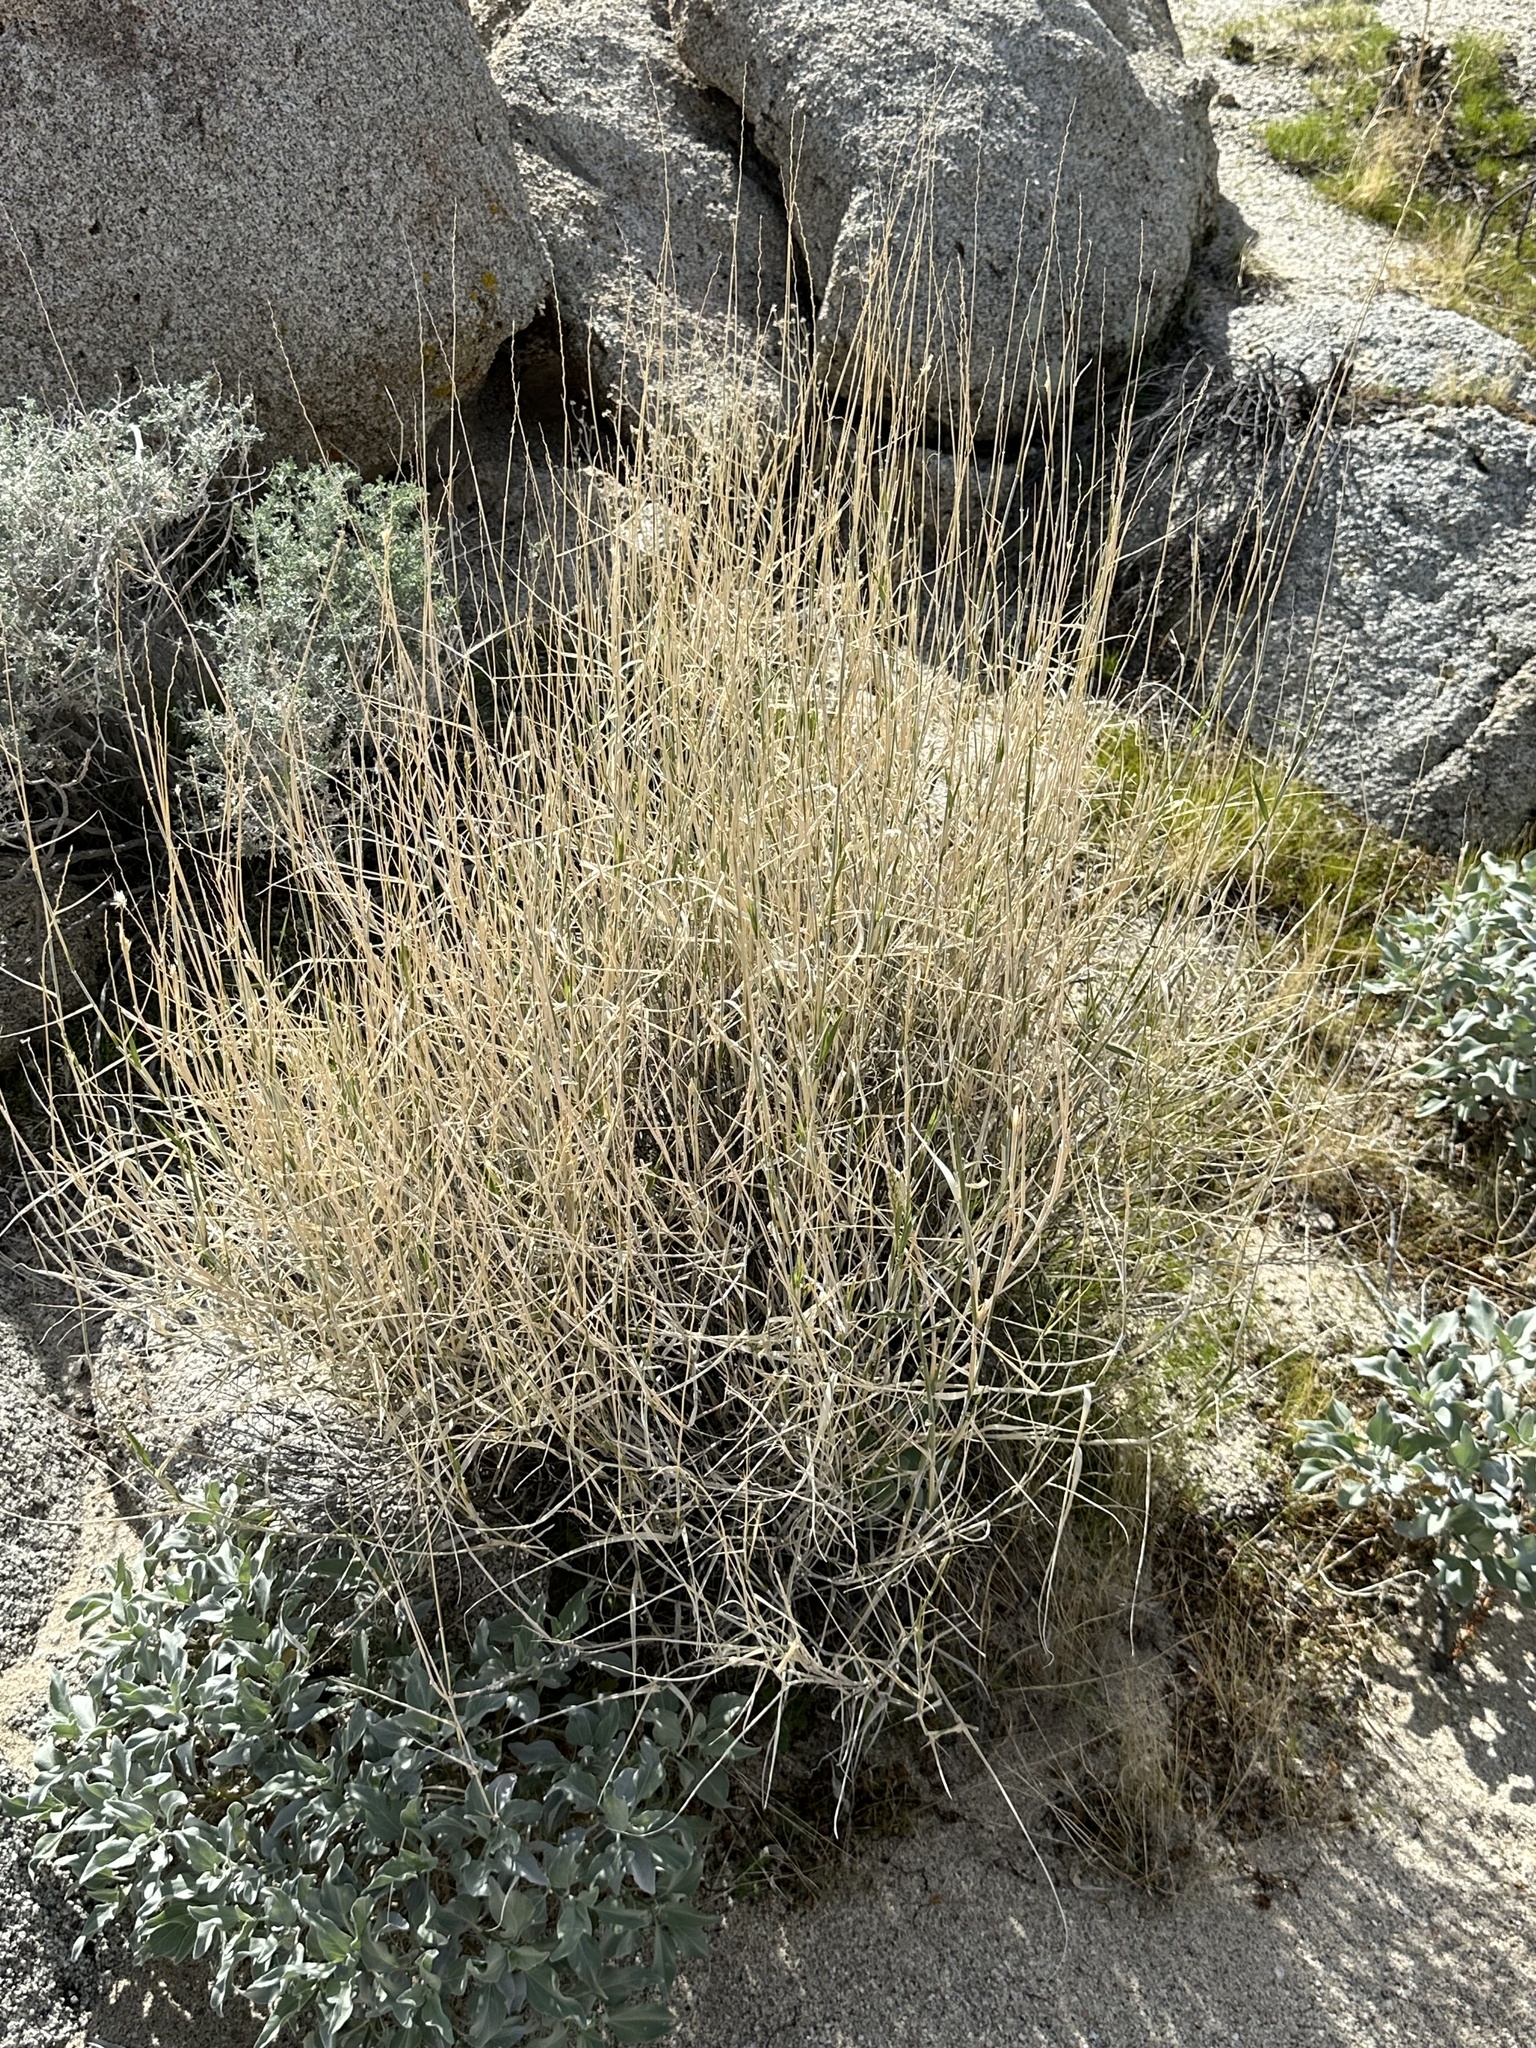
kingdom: Plantae
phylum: Tracheophyta
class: Liliopsida
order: Poales
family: Poaceae
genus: Hilaria
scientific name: Hilaria rigida
